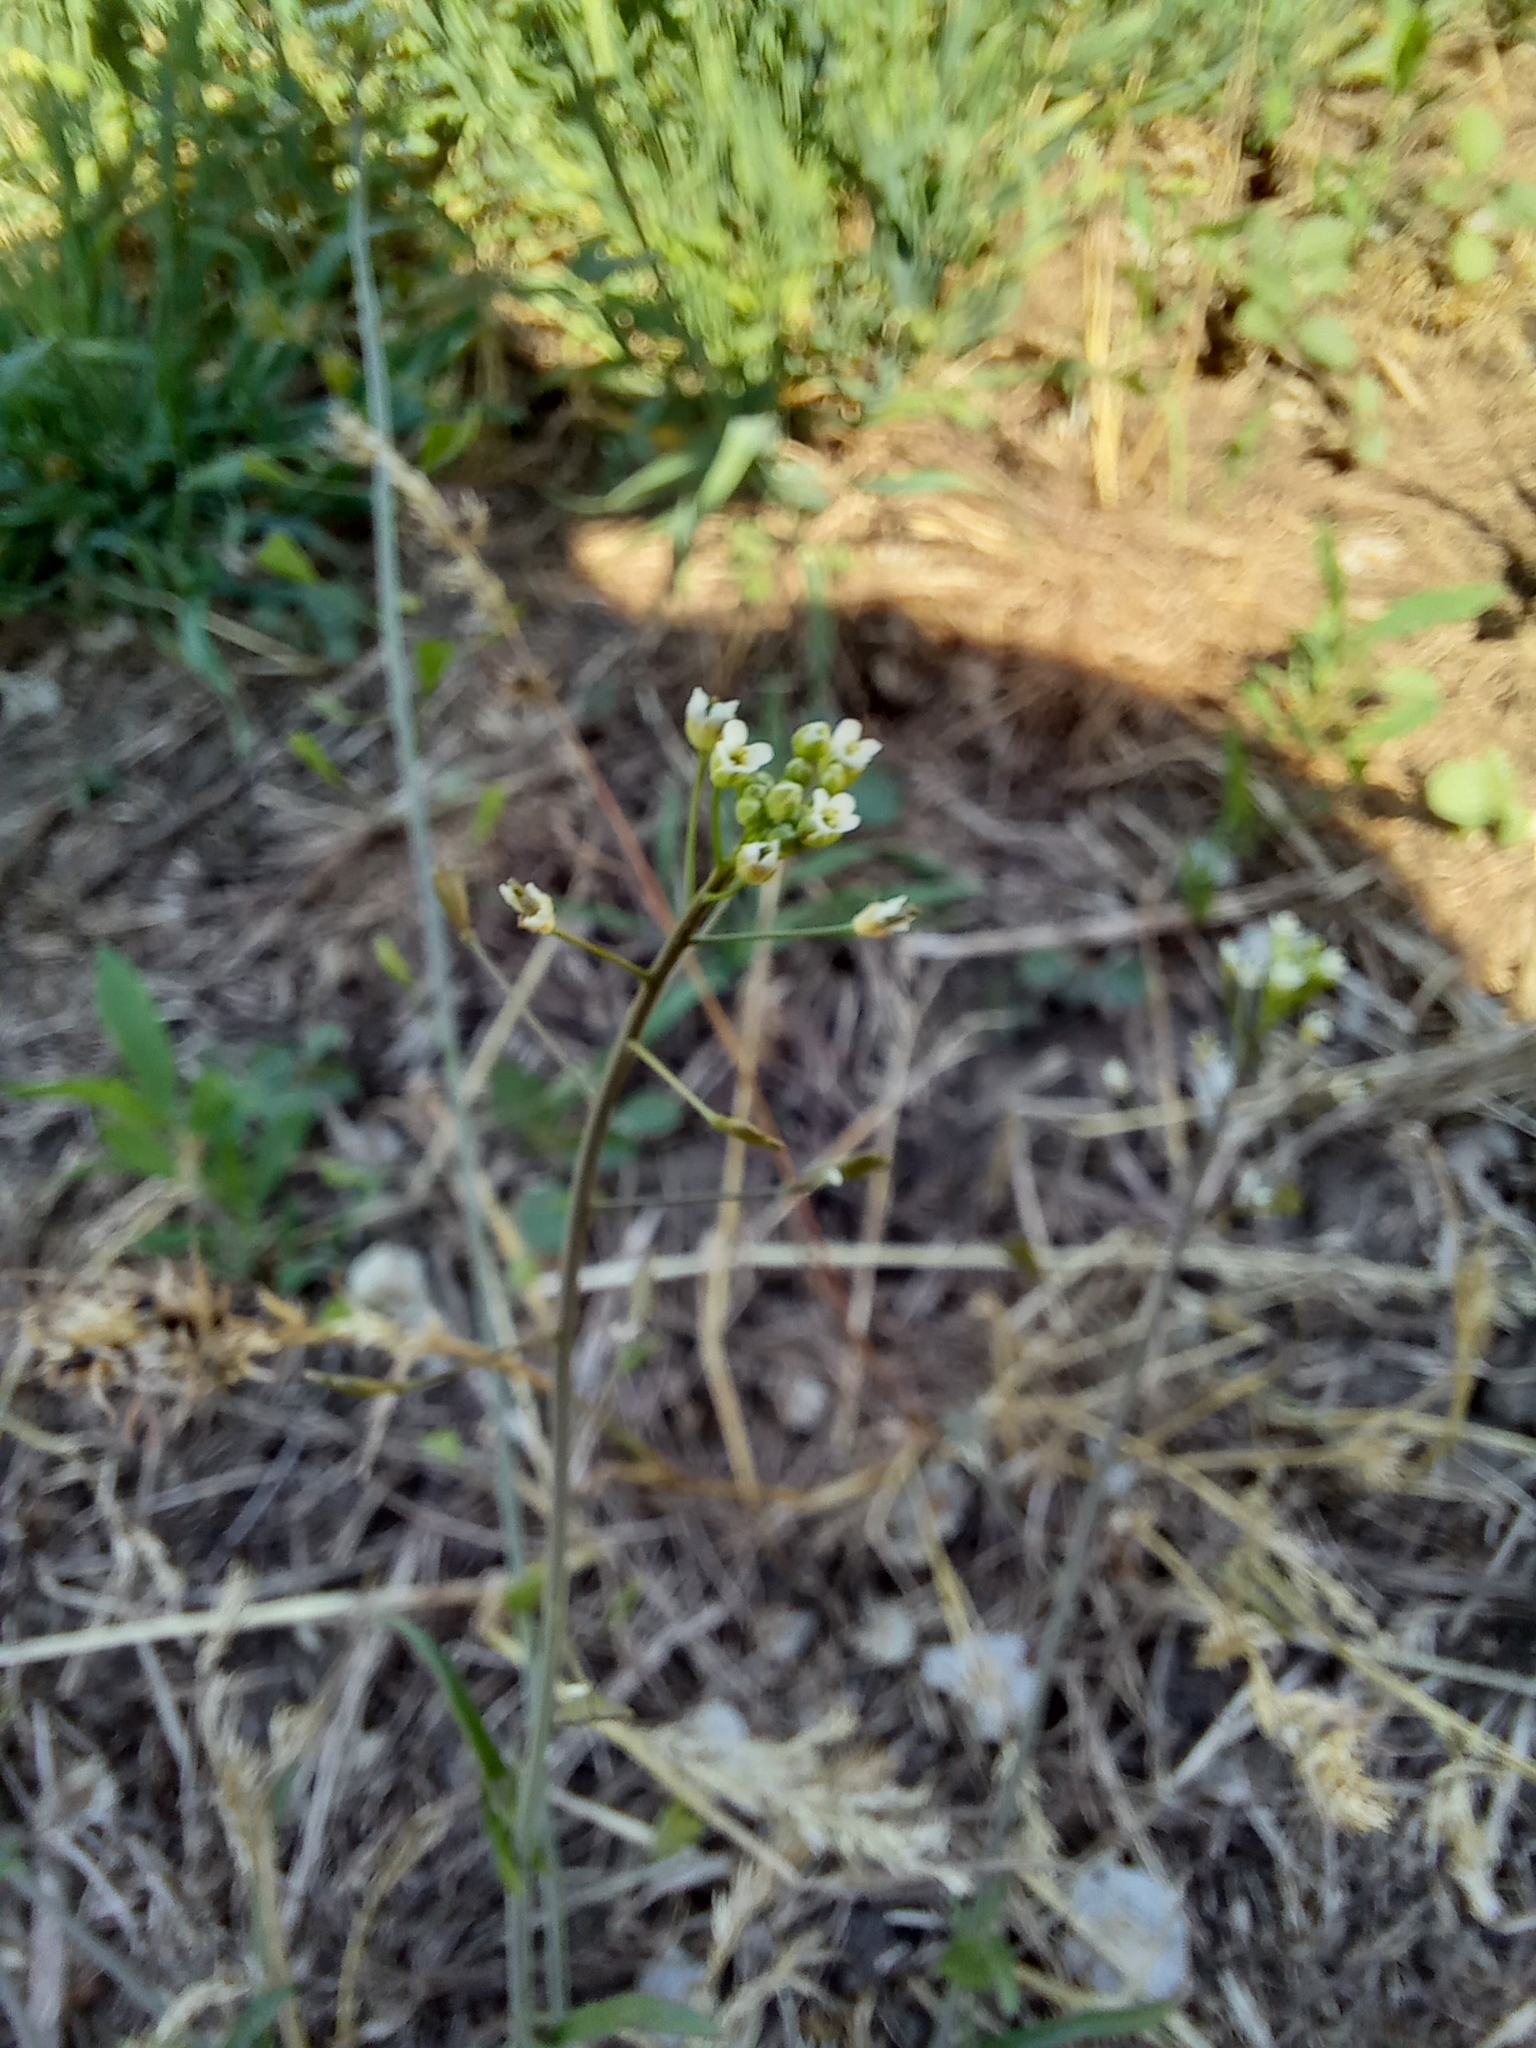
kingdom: Plantae
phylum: Tracheophyta
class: Magnoliopsida
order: Brassicales
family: Brassicaceae
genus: Capsella
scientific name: Capsella bursa-pastoris
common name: Shepherd's purse
